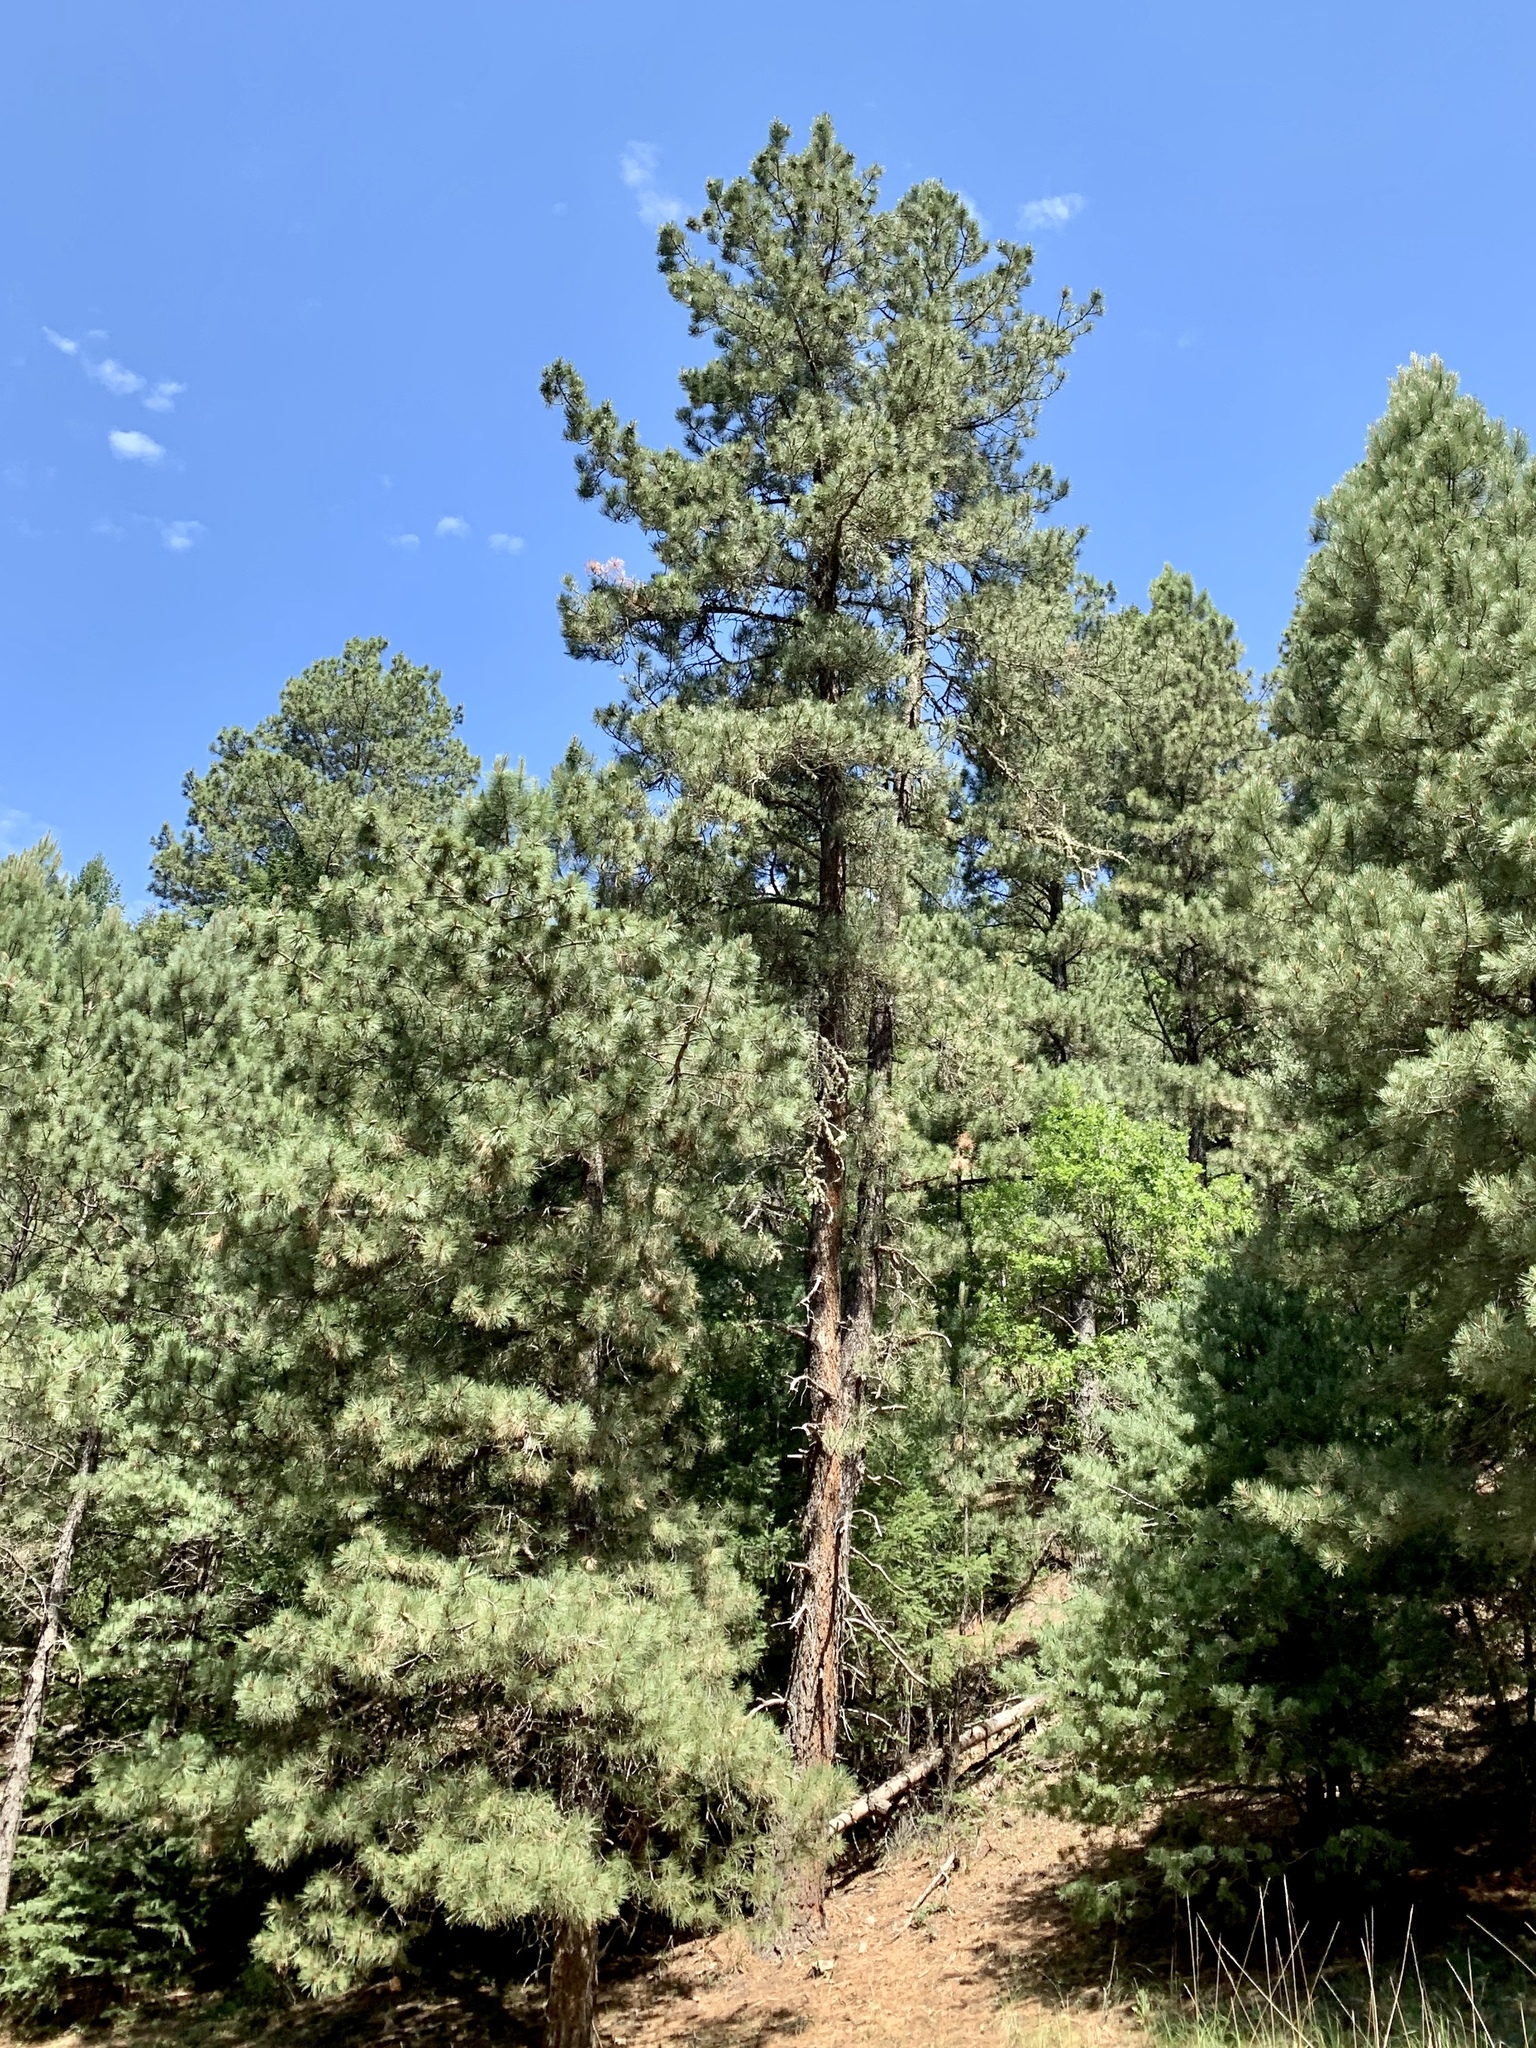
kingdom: Plantae
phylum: Tracheophyta
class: Pinopsida
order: Pinales
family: Pinaceae
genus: Pinus
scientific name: Pinus ponderosa
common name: Western yellow-pine
